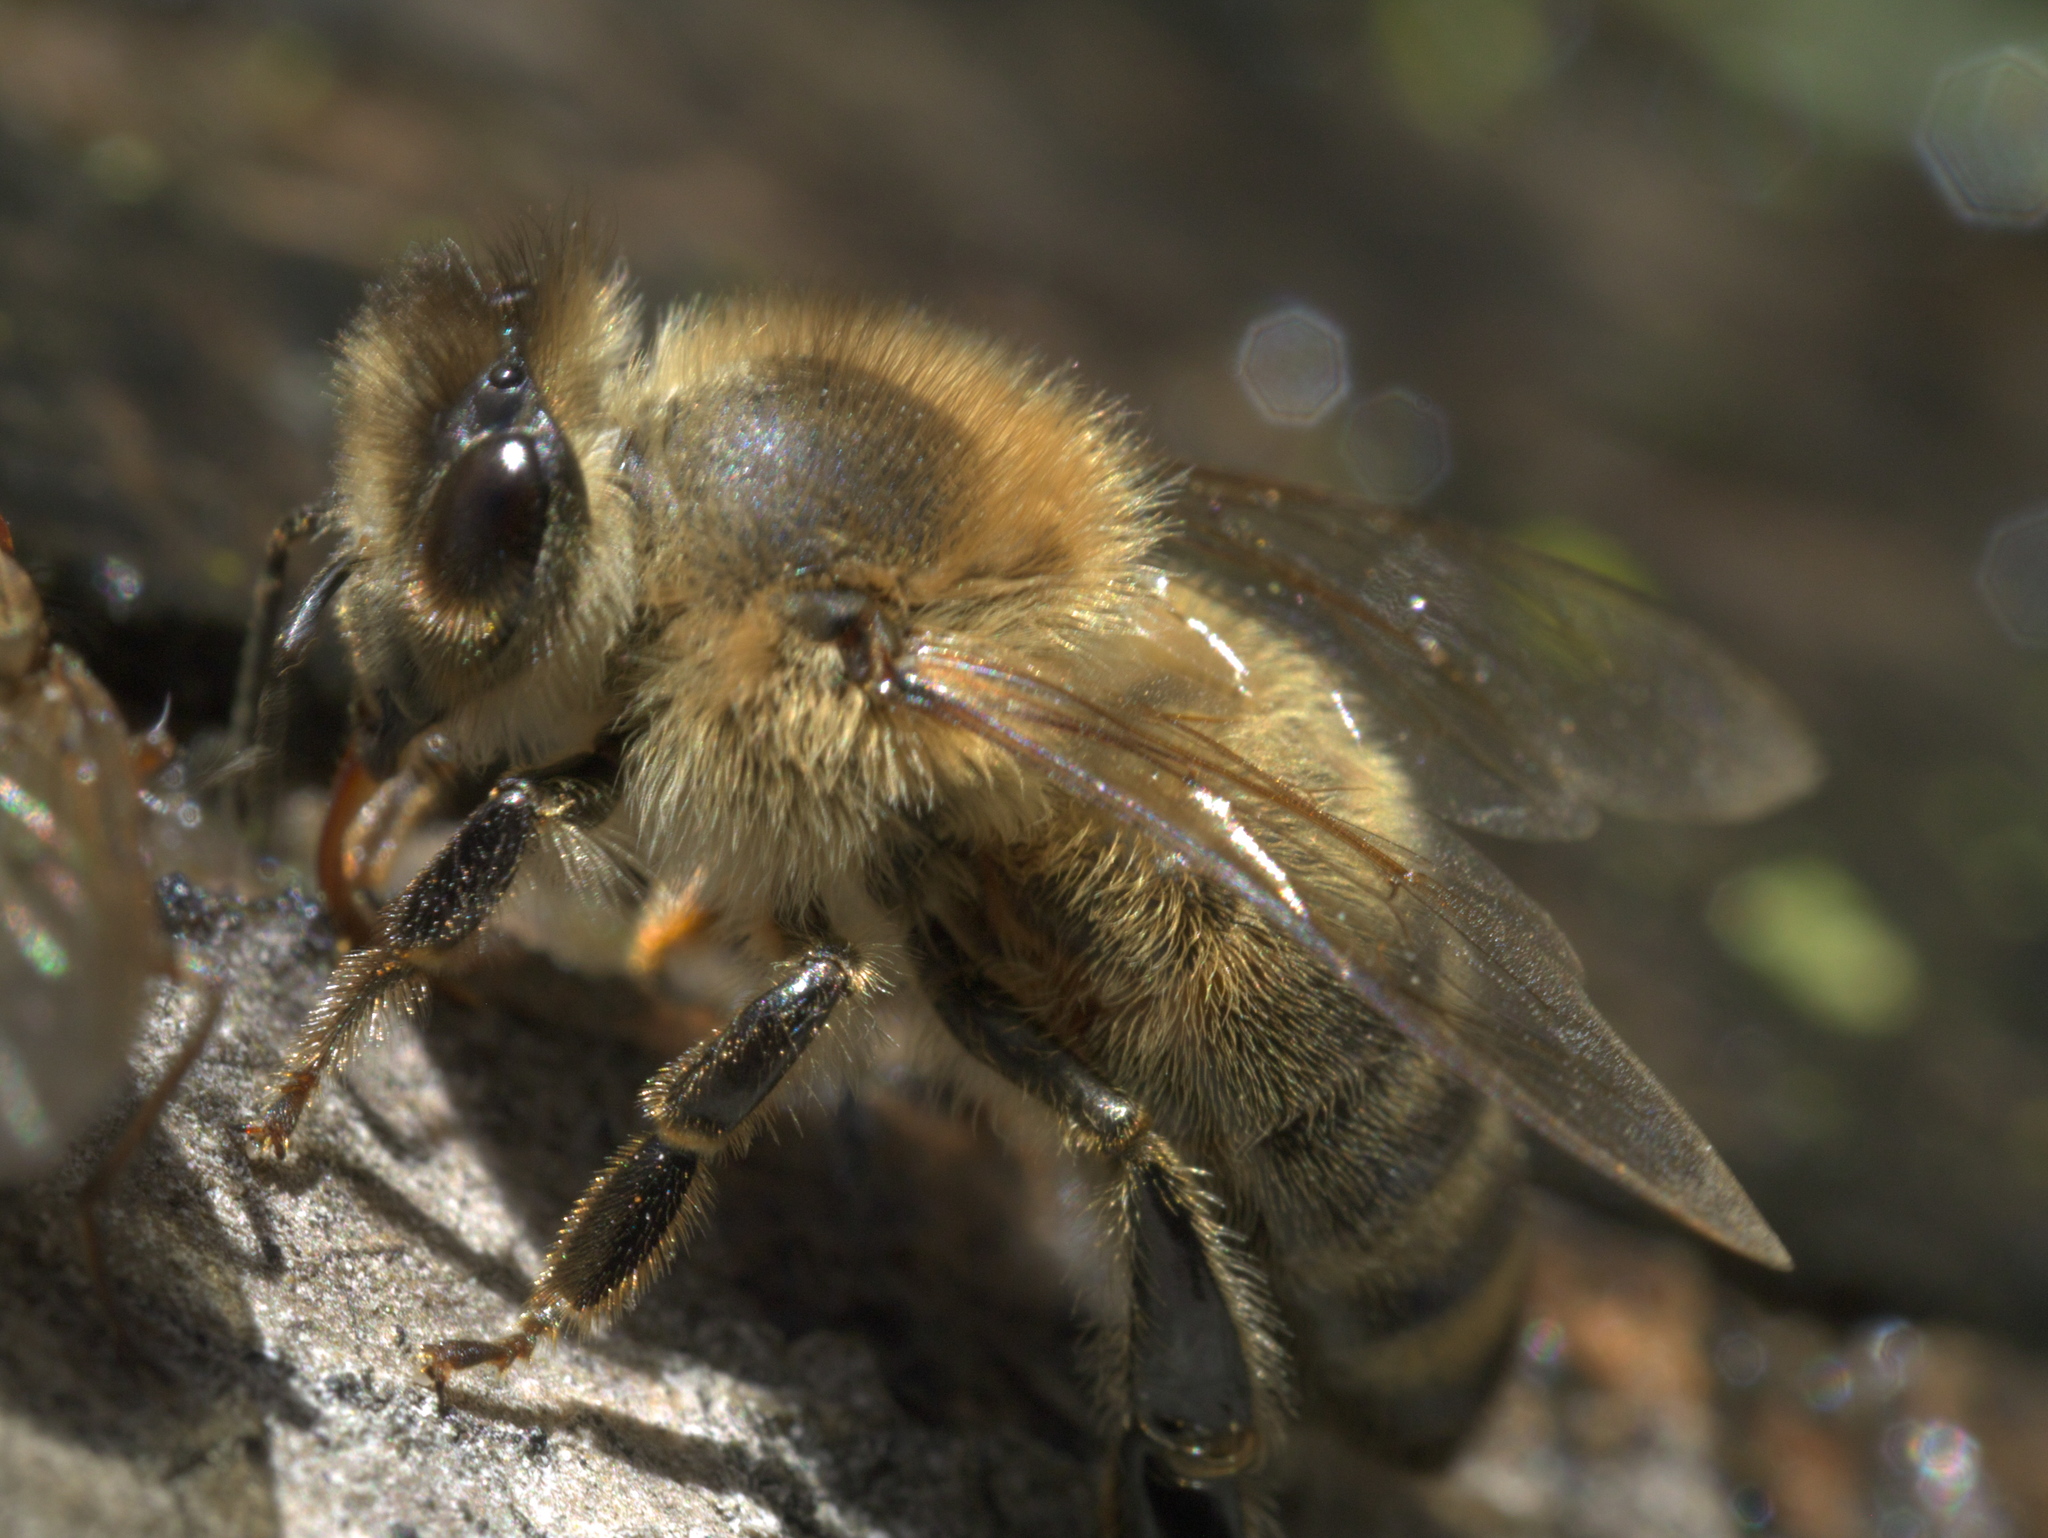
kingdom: Animalia
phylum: Arthropoda
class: Insecta
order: Hymenoptera
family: Apidae
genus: Apis
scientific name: Apis mellifera
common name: Honey bee
